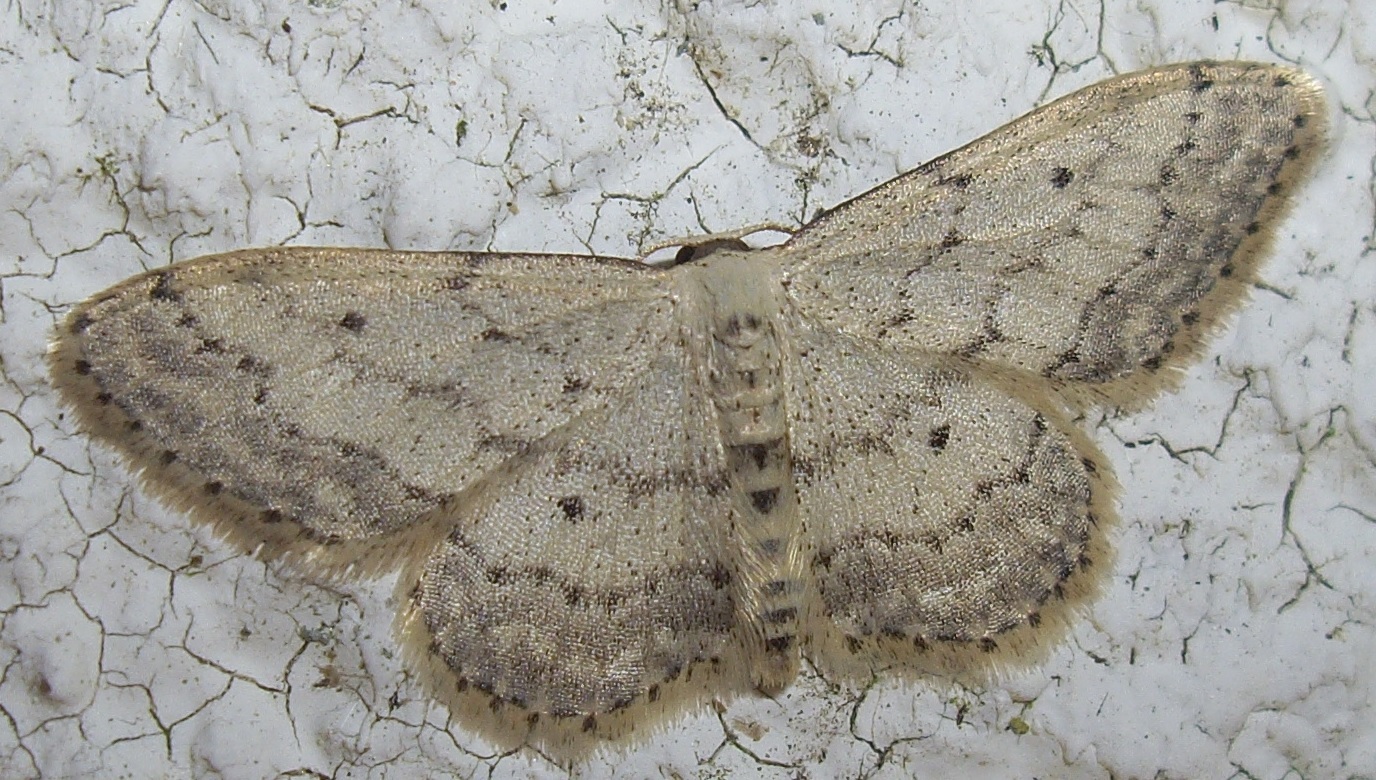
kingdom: Animalia
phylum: Arthropoda
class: Insecta
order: Lepidoptera
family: Geometridae
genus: Idaea
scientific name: Idaea seriata
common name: Small dusty wave
